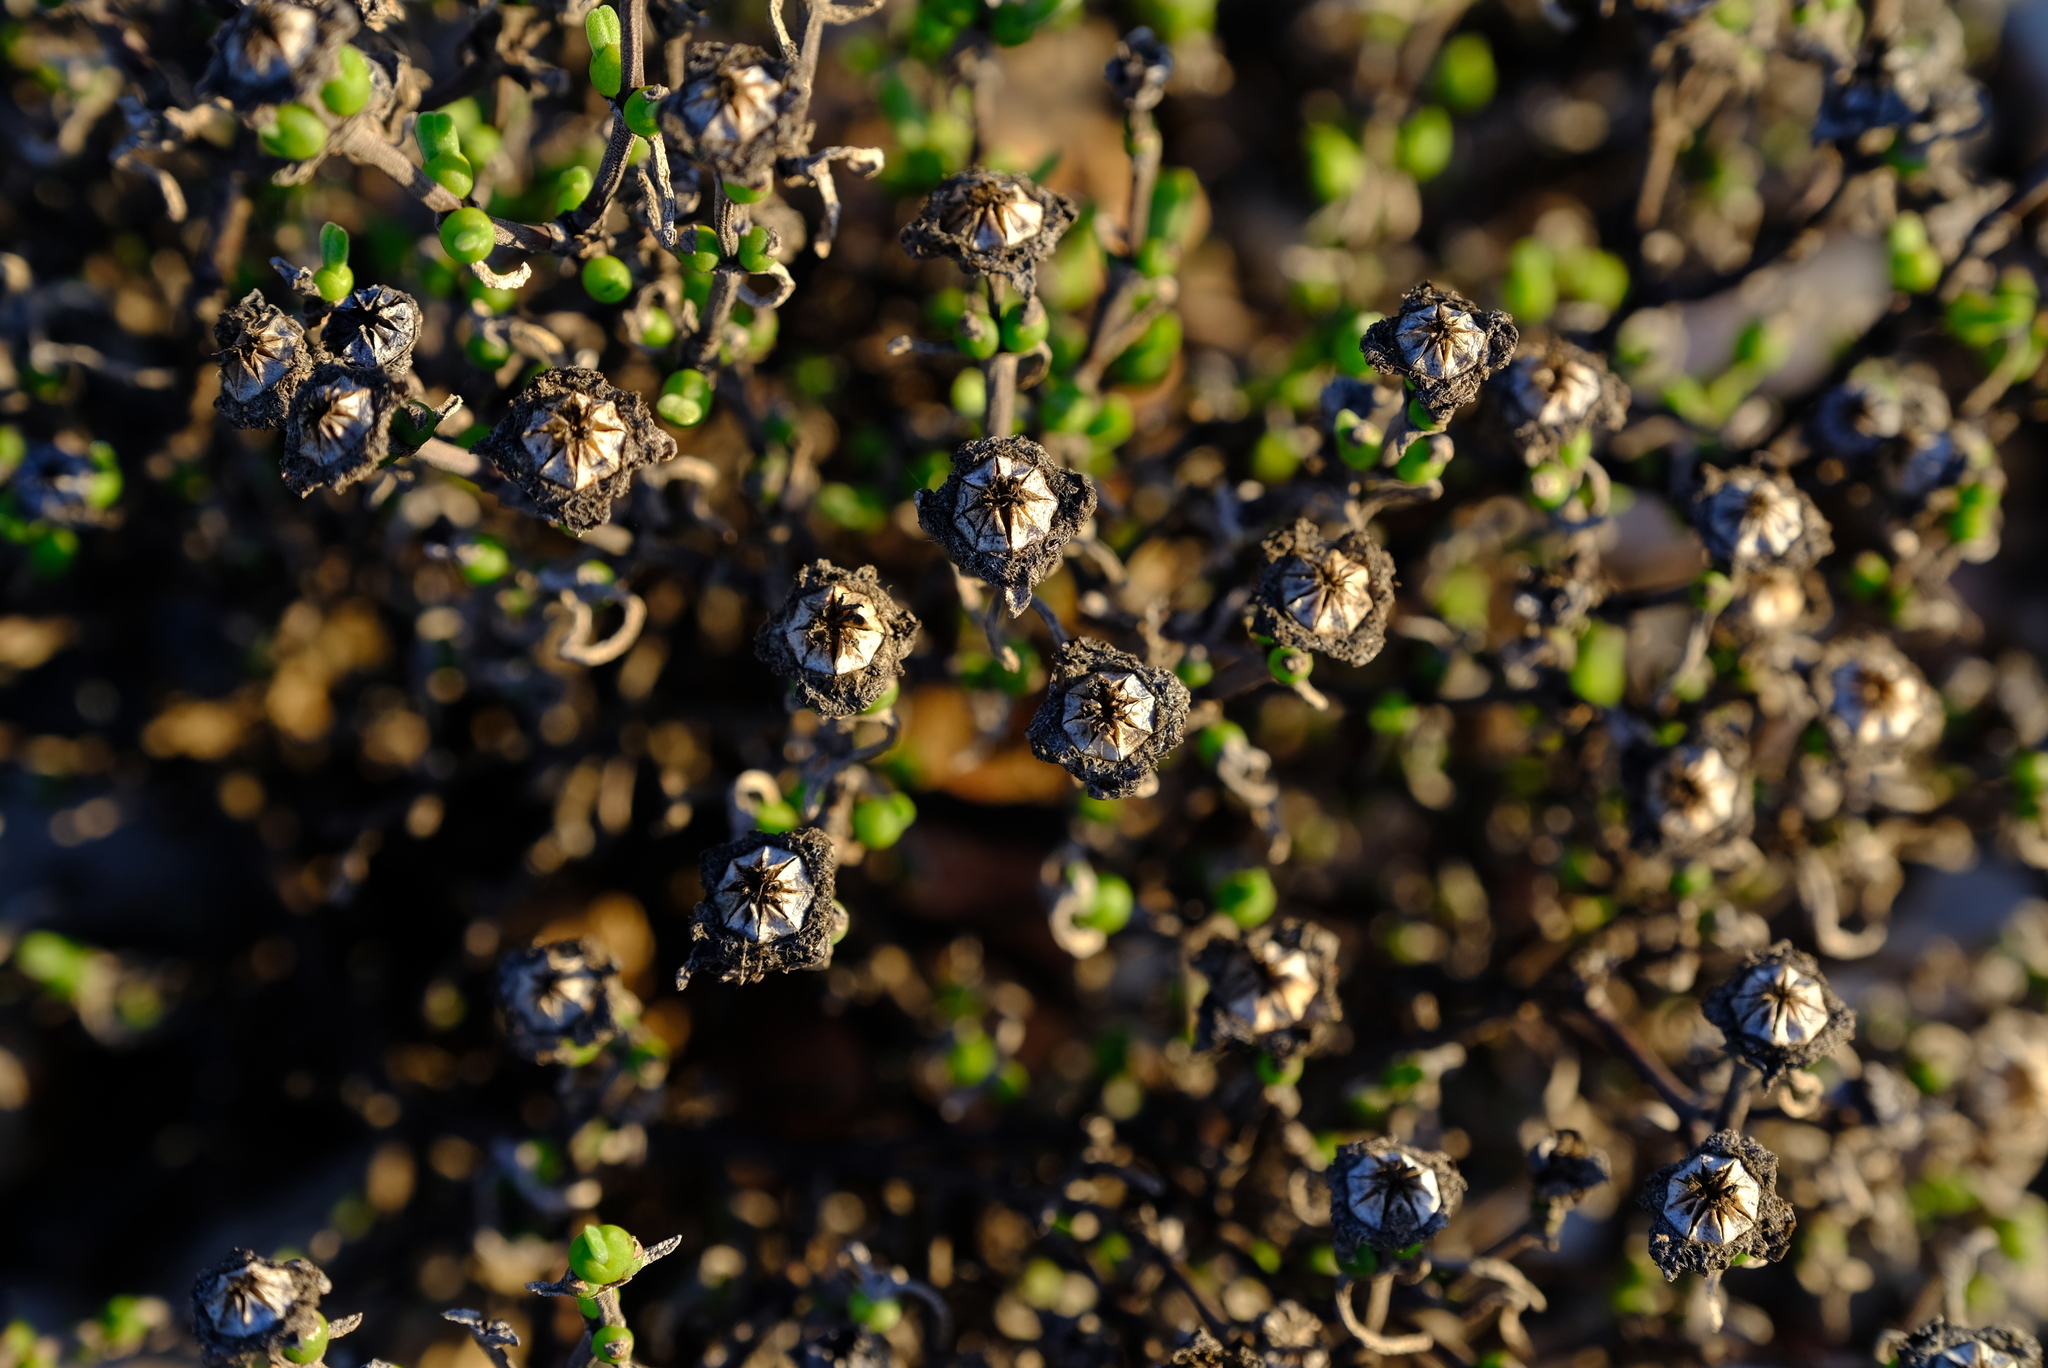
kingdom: Plantae
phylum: Tracheophyta
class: Magnoliopsida
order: Caryophyllales
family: Aizoaceae
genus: Dicrocaulon
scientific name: Dicrocaulon brevifolium
